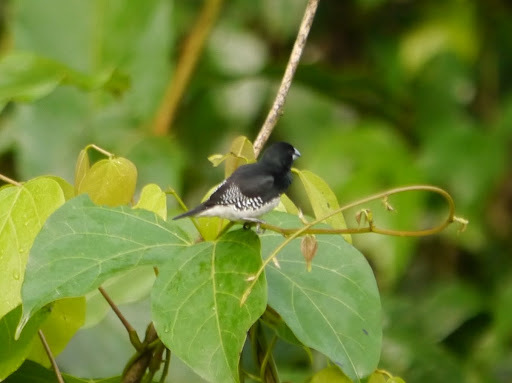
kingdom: Animalia
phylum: Chordata
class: Aves
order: Passeriformes
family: Estrildidae
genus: Lonchura
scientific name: Lonchura bicolor
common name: Black-and-white mannikin
